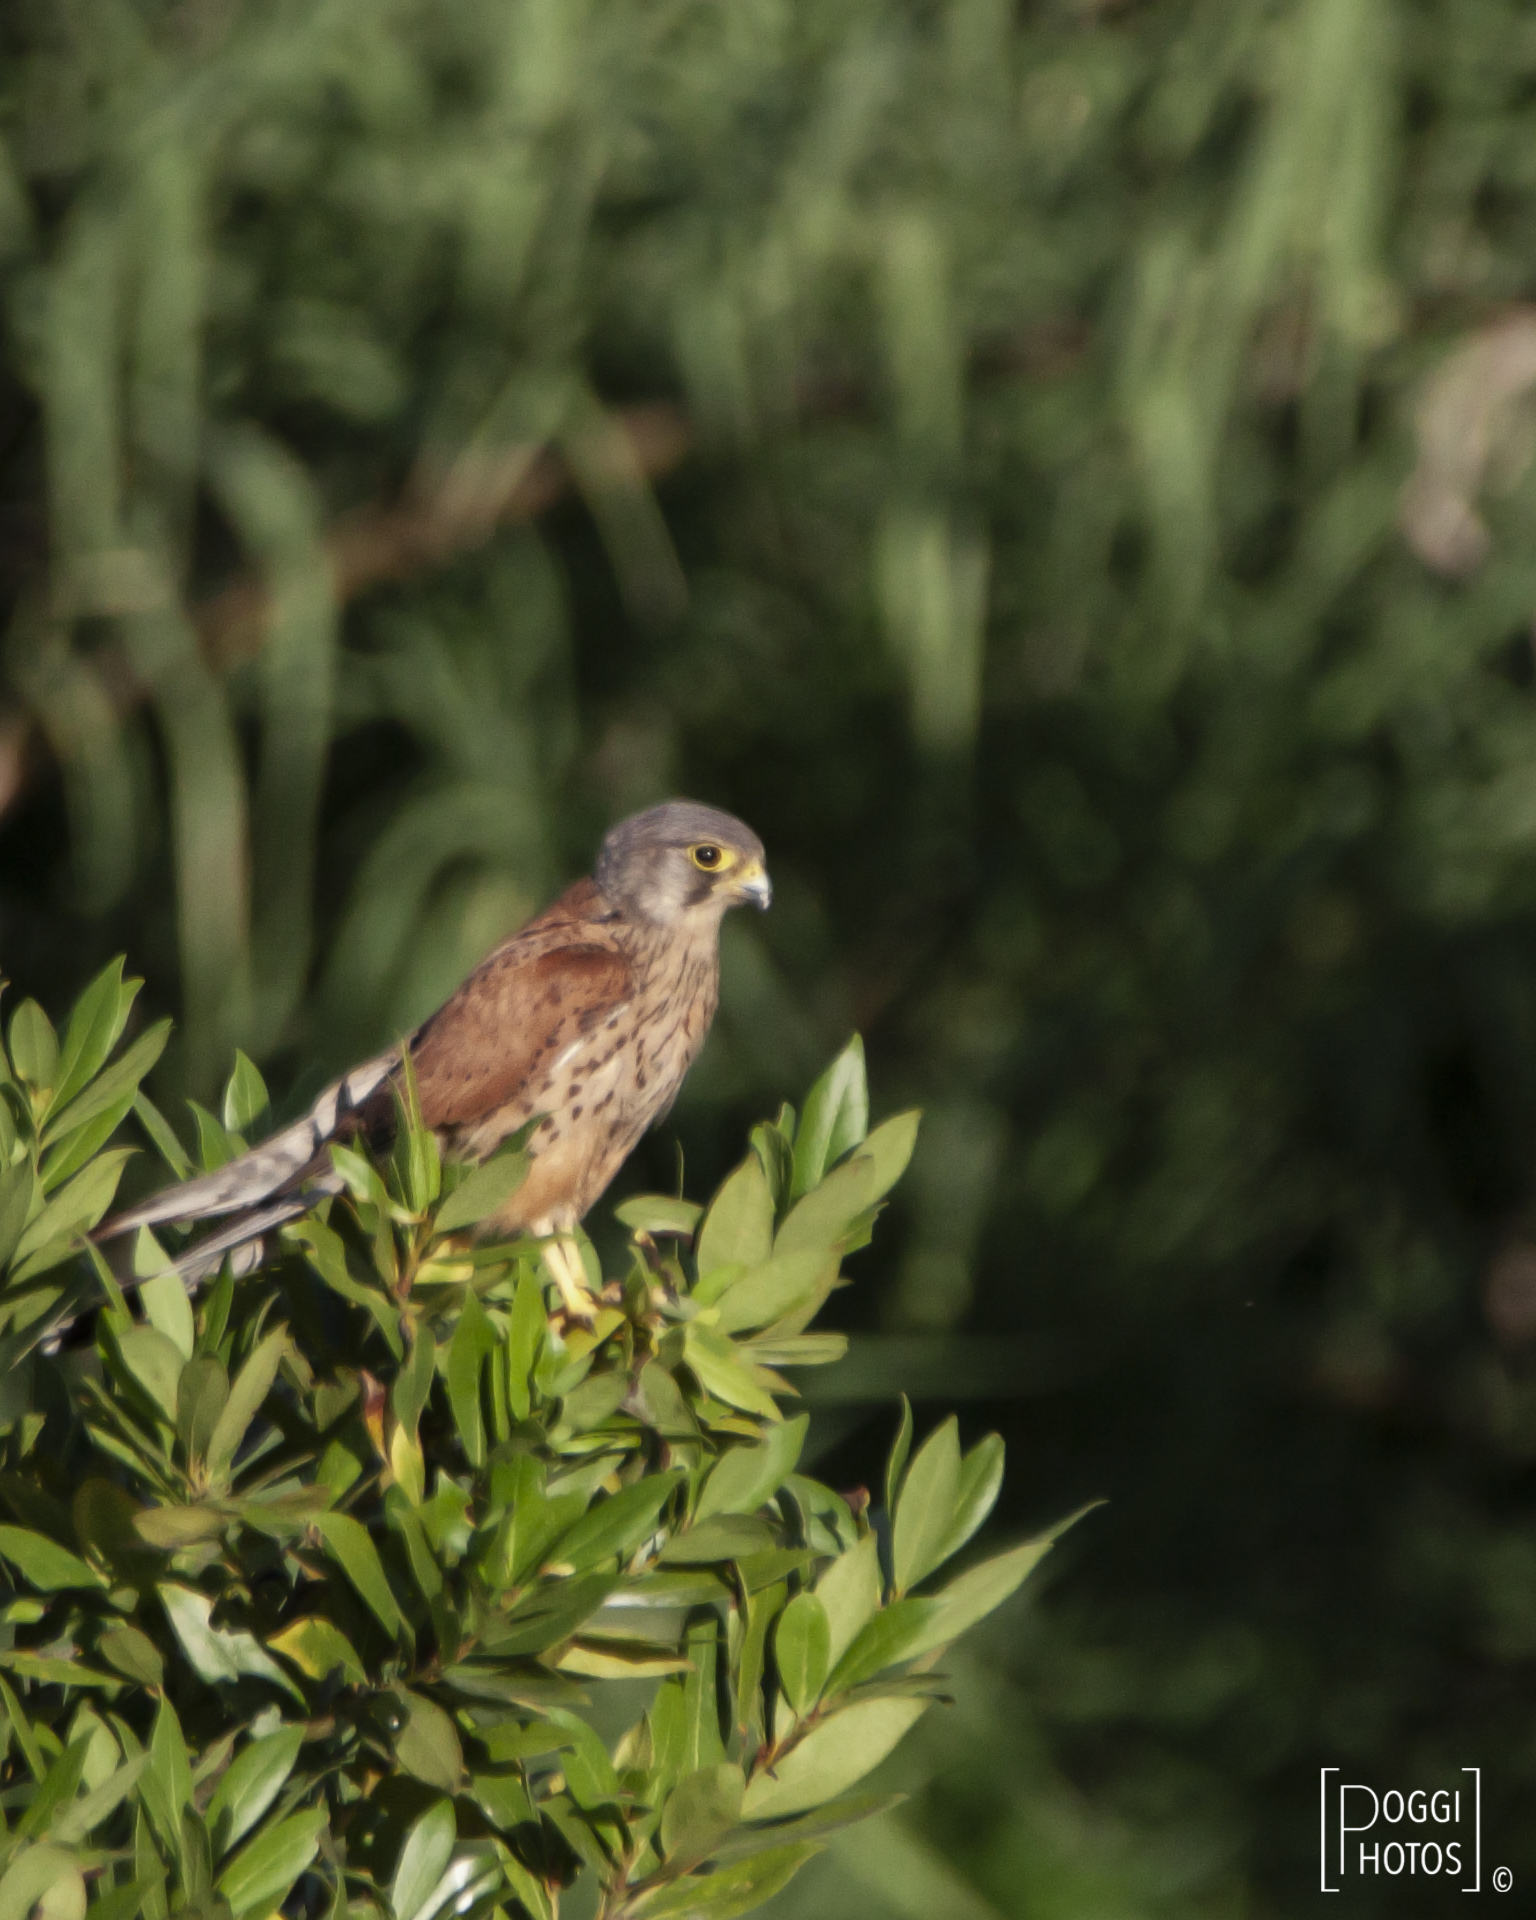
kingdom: Animalia
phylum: Chordata
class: Aves
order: Falconiformes
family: Falconidae
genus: Falco
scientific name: Falco tinnunculus
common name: Common kestrel
